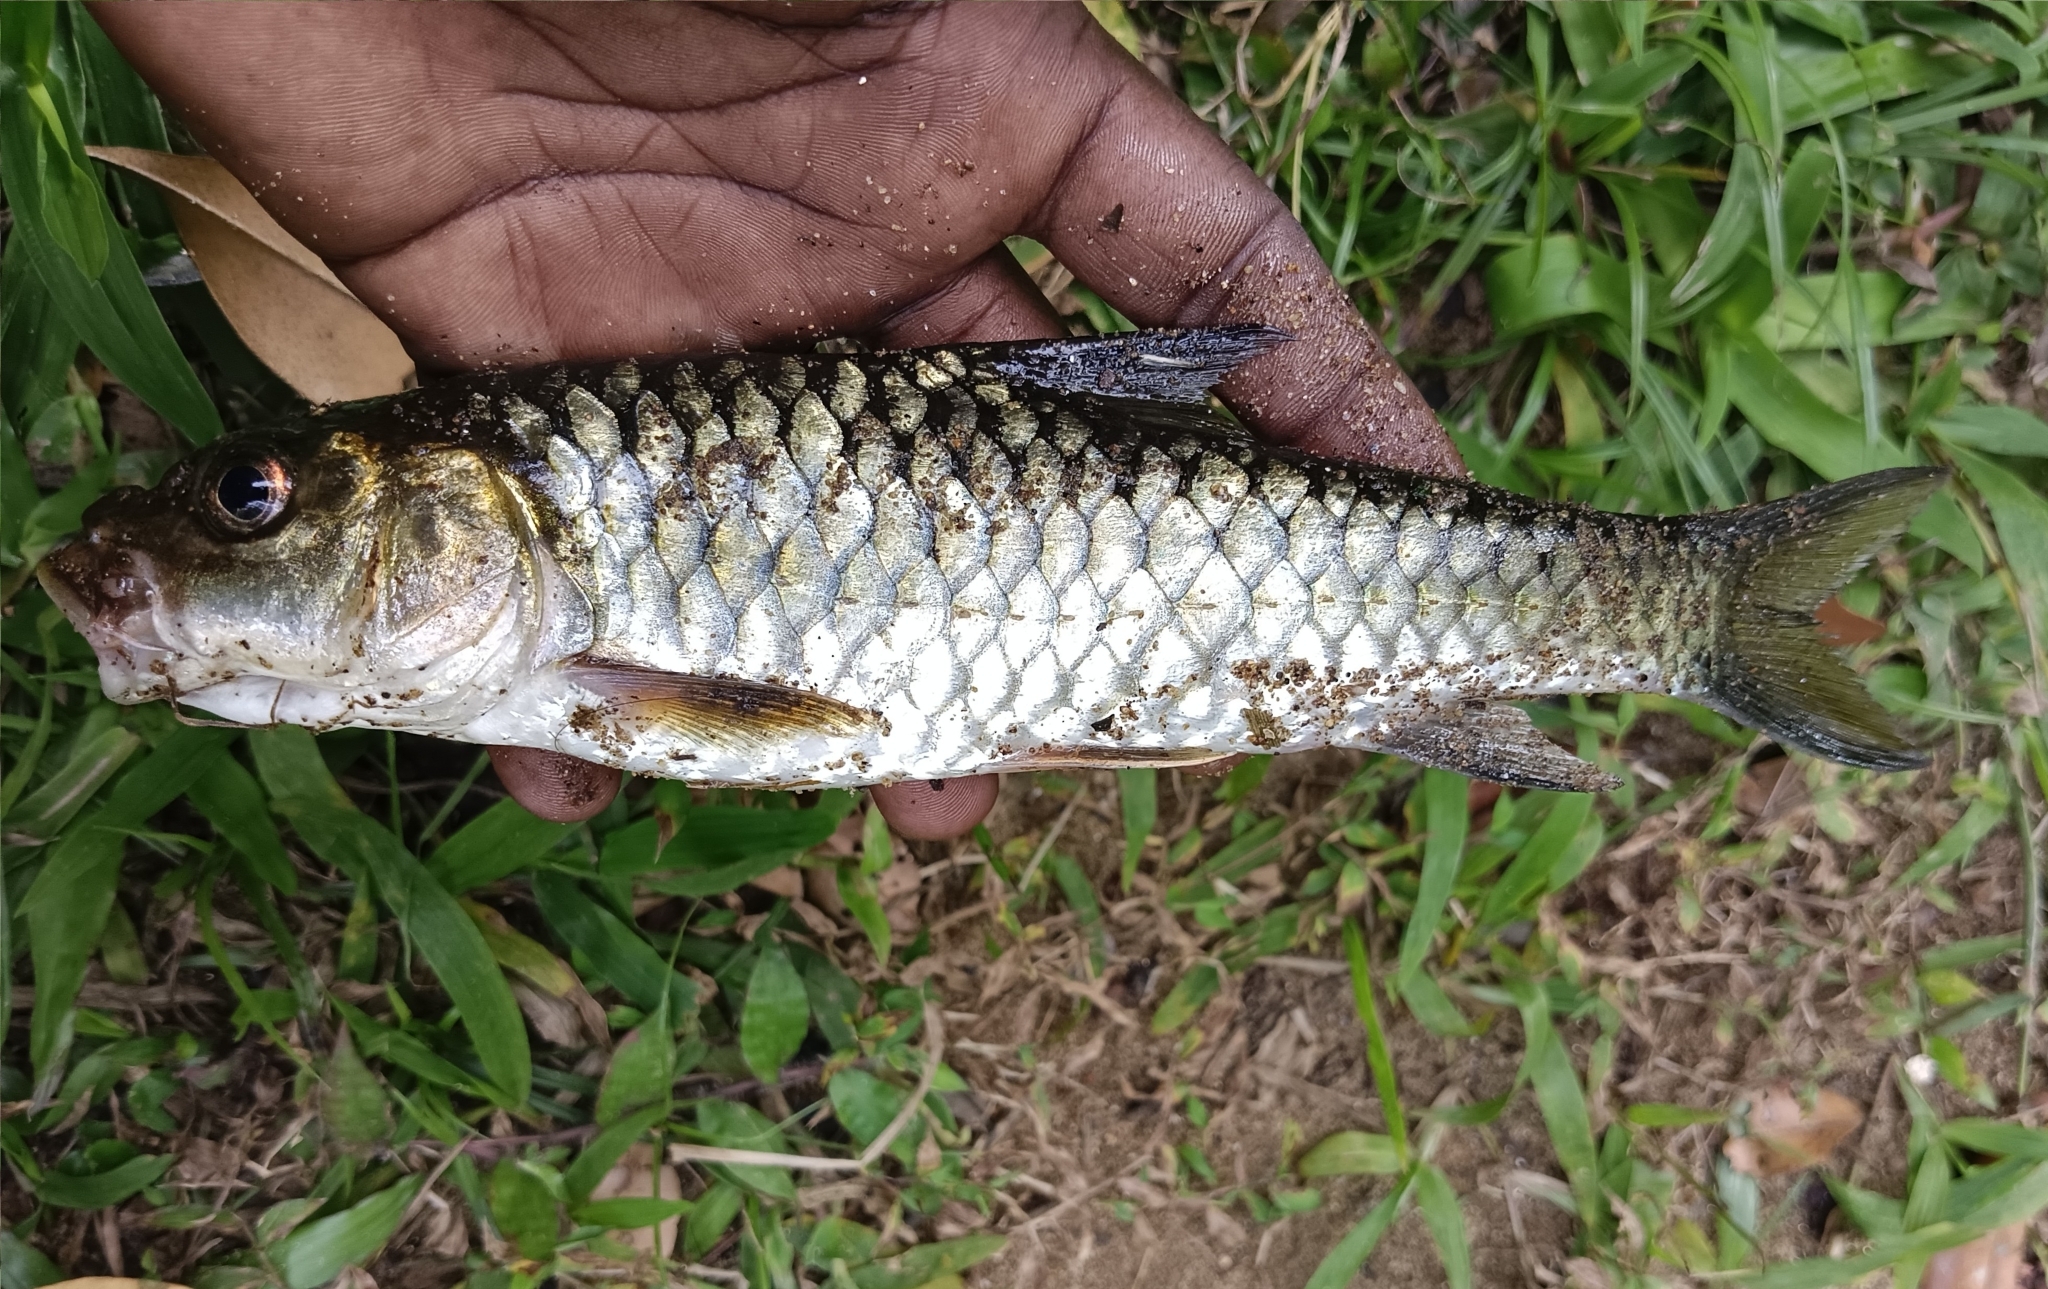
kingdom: Animalia
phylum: Chordata
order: Cypriniformes
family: Cyprinidae
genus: Tor
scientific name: Tor malabaricus
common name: Malabar mahseer
